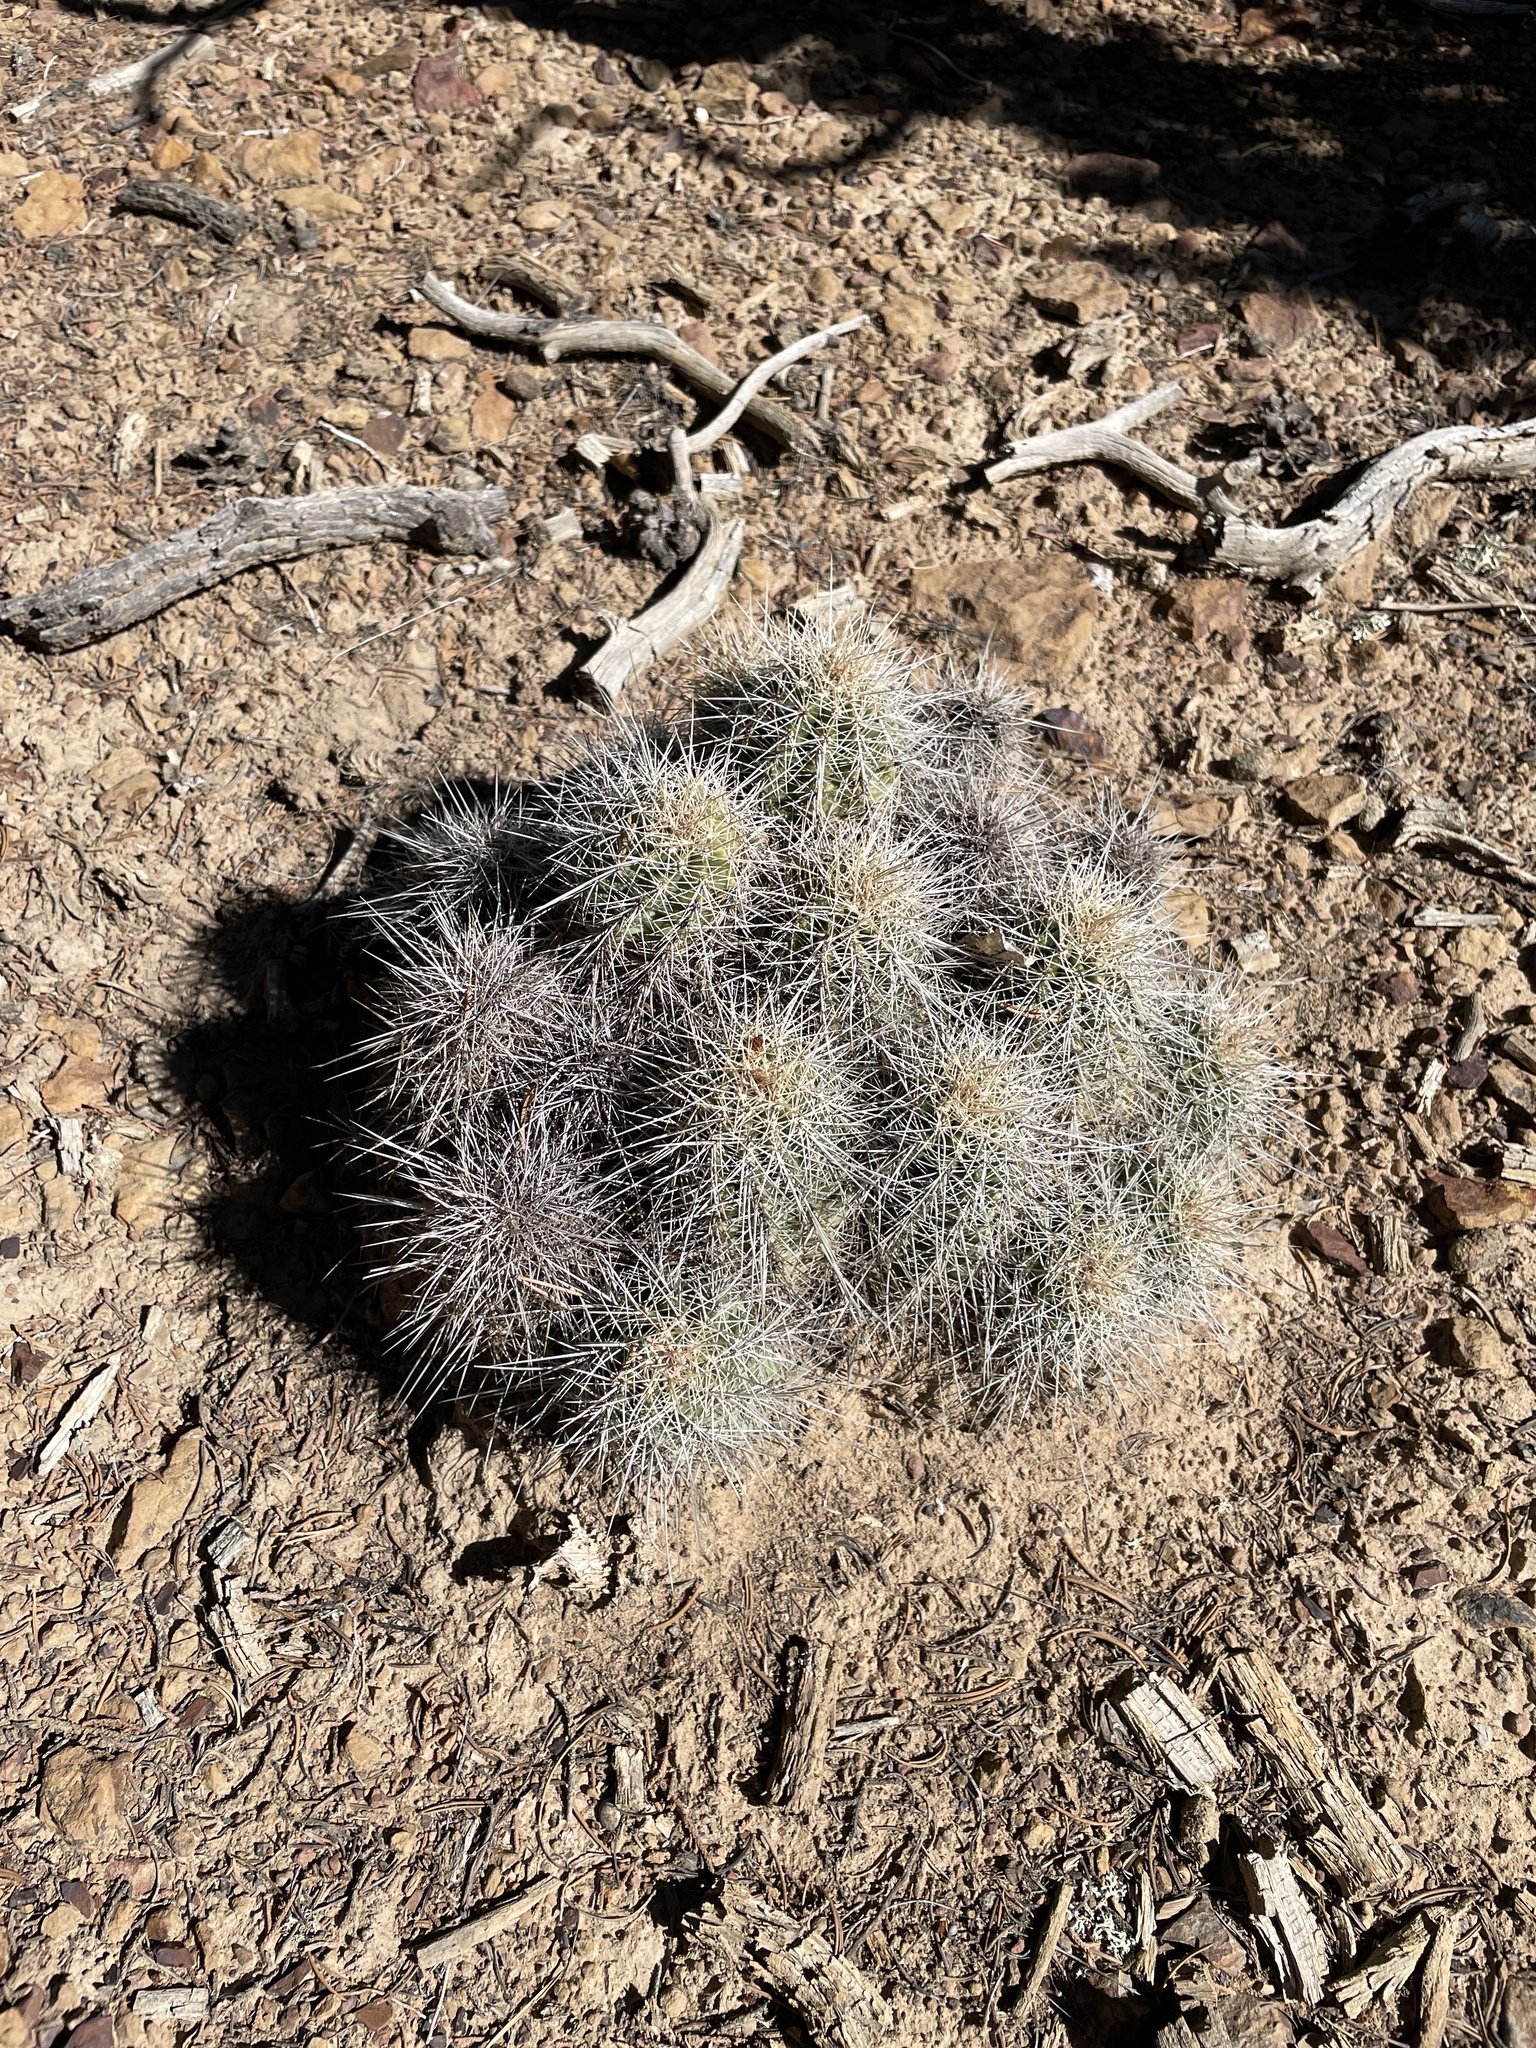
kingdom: Plantae
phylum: Tracheophyta
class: Magnoliopsida
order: Caryophyllales
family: Cactaceae
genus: Echinocereus
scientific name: Echinocereus coccineus
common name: Scarlet hedgehog cactus
